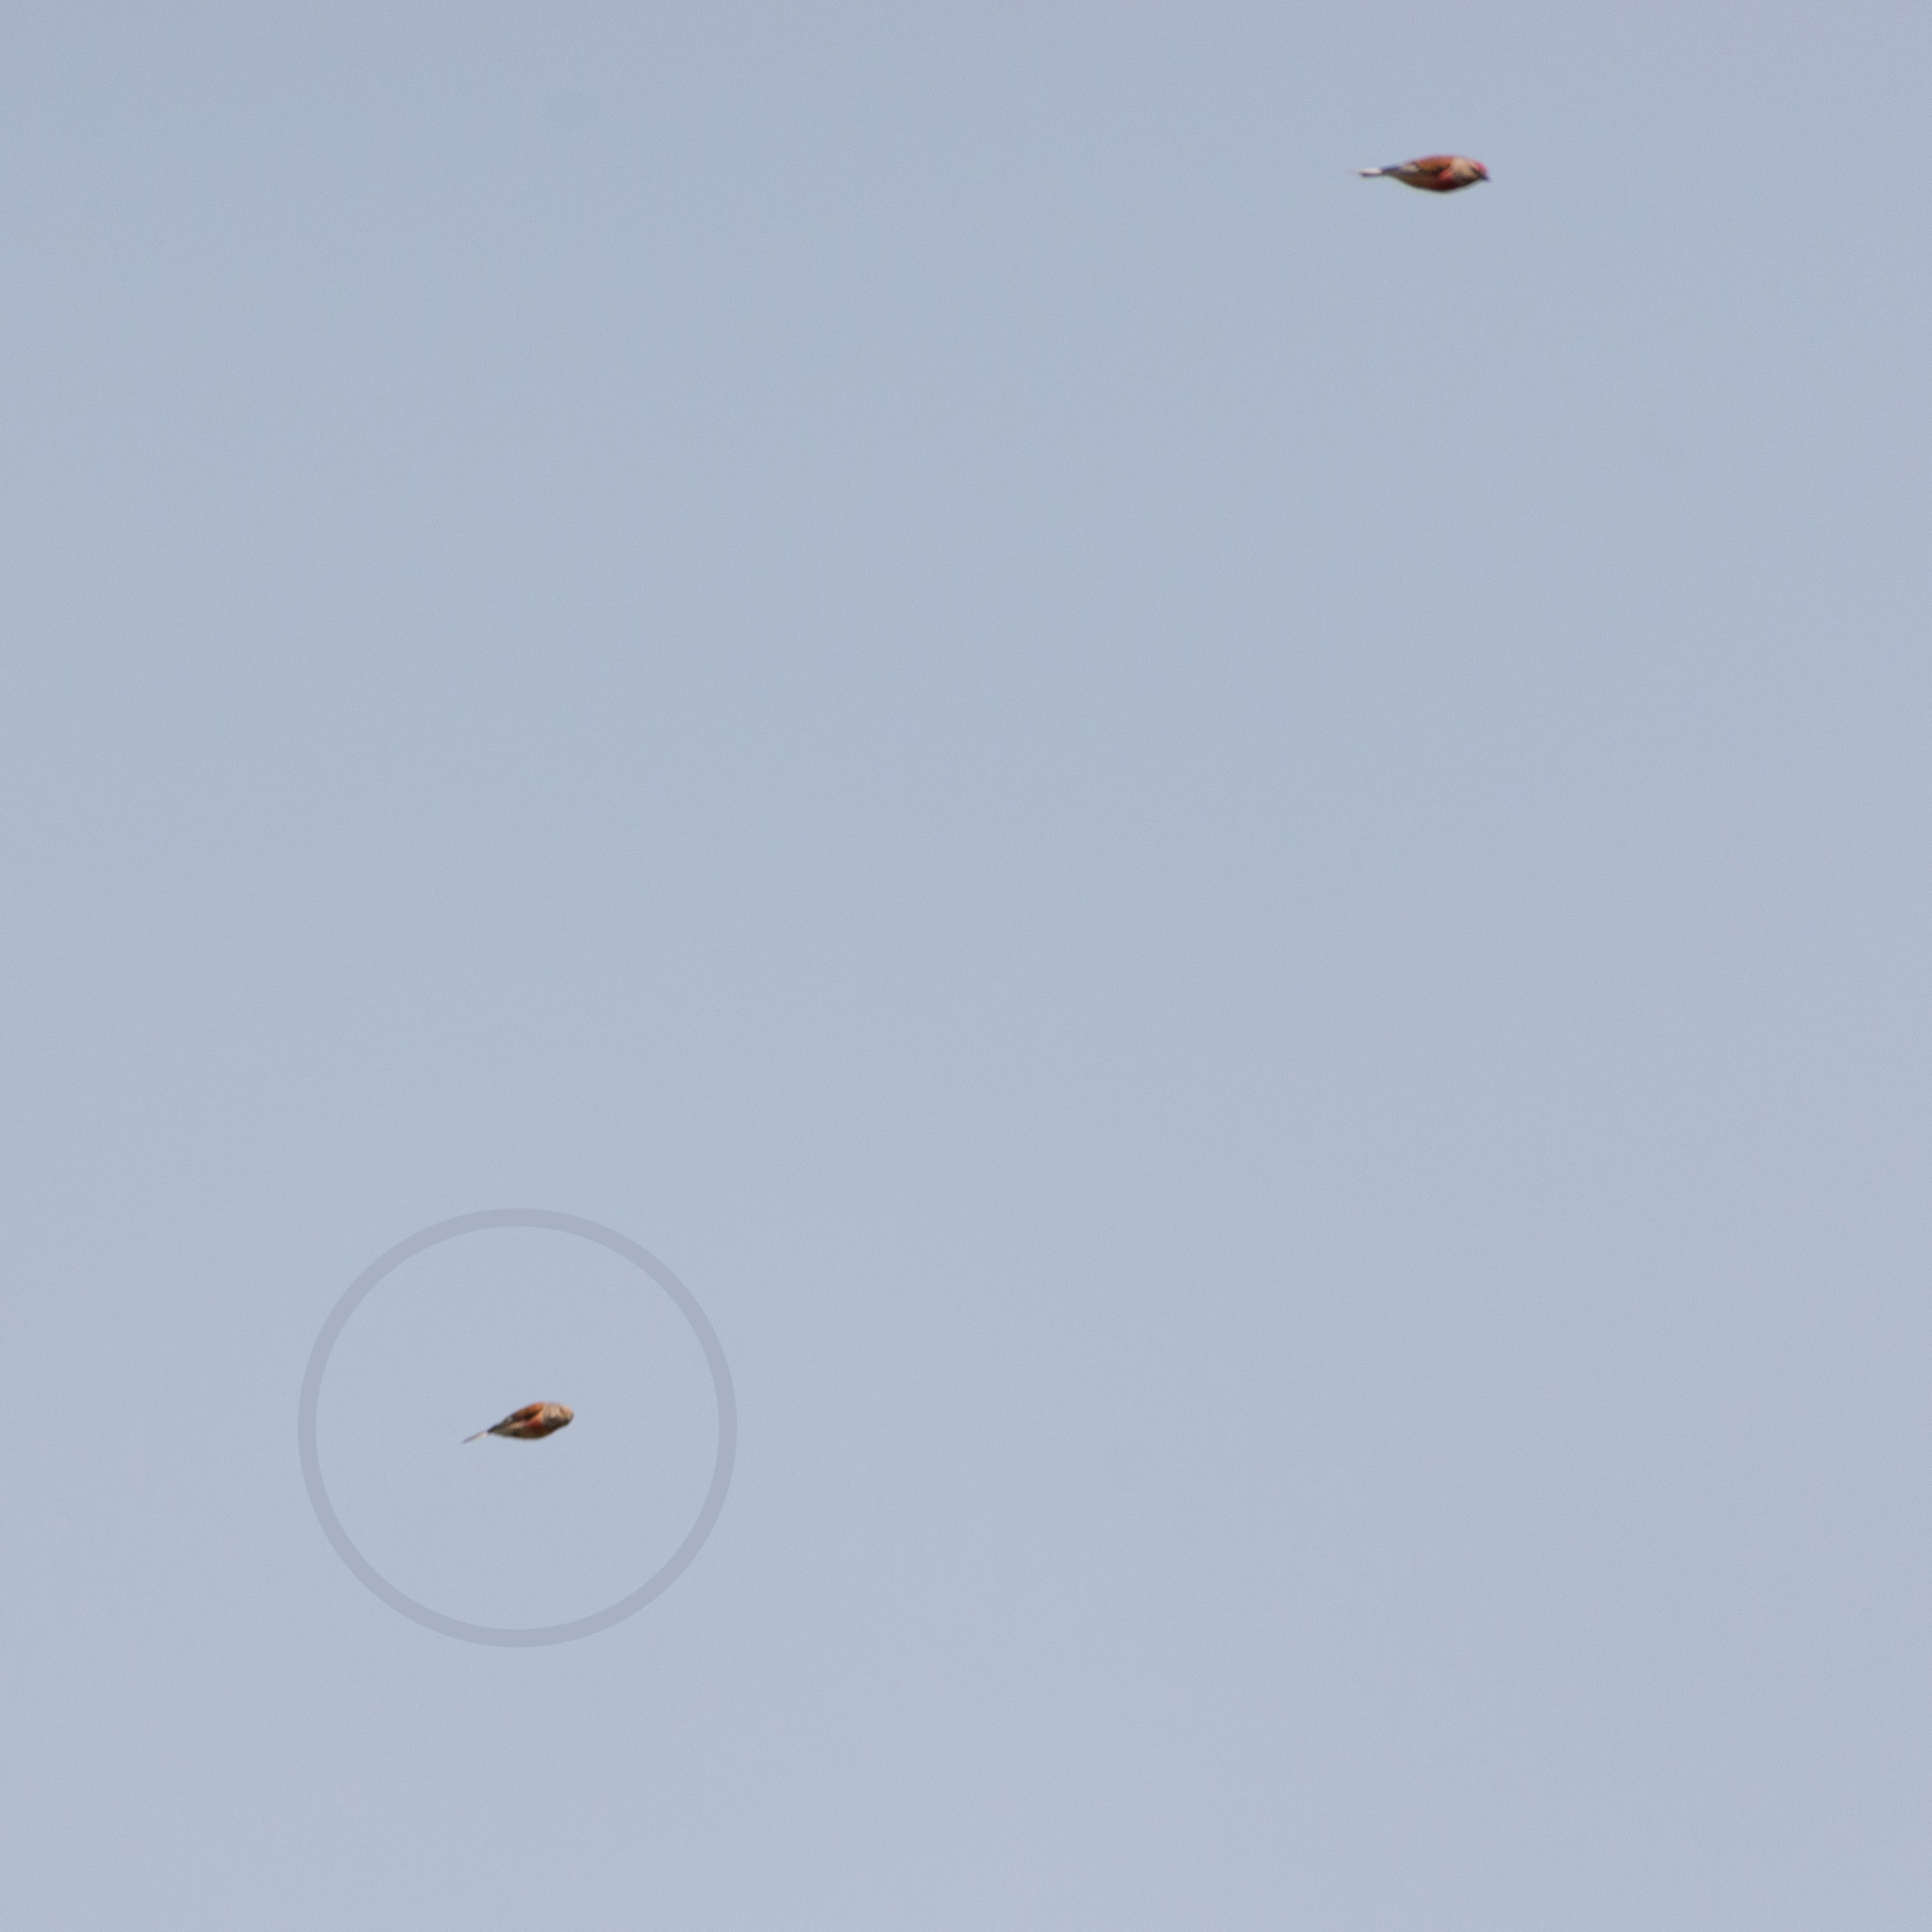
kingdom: Animalia
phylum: Chordata
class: Aves
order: Passeriformes
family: Fringillidae
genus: Linaria
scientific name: Linaria cannabina
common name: Common linnet
